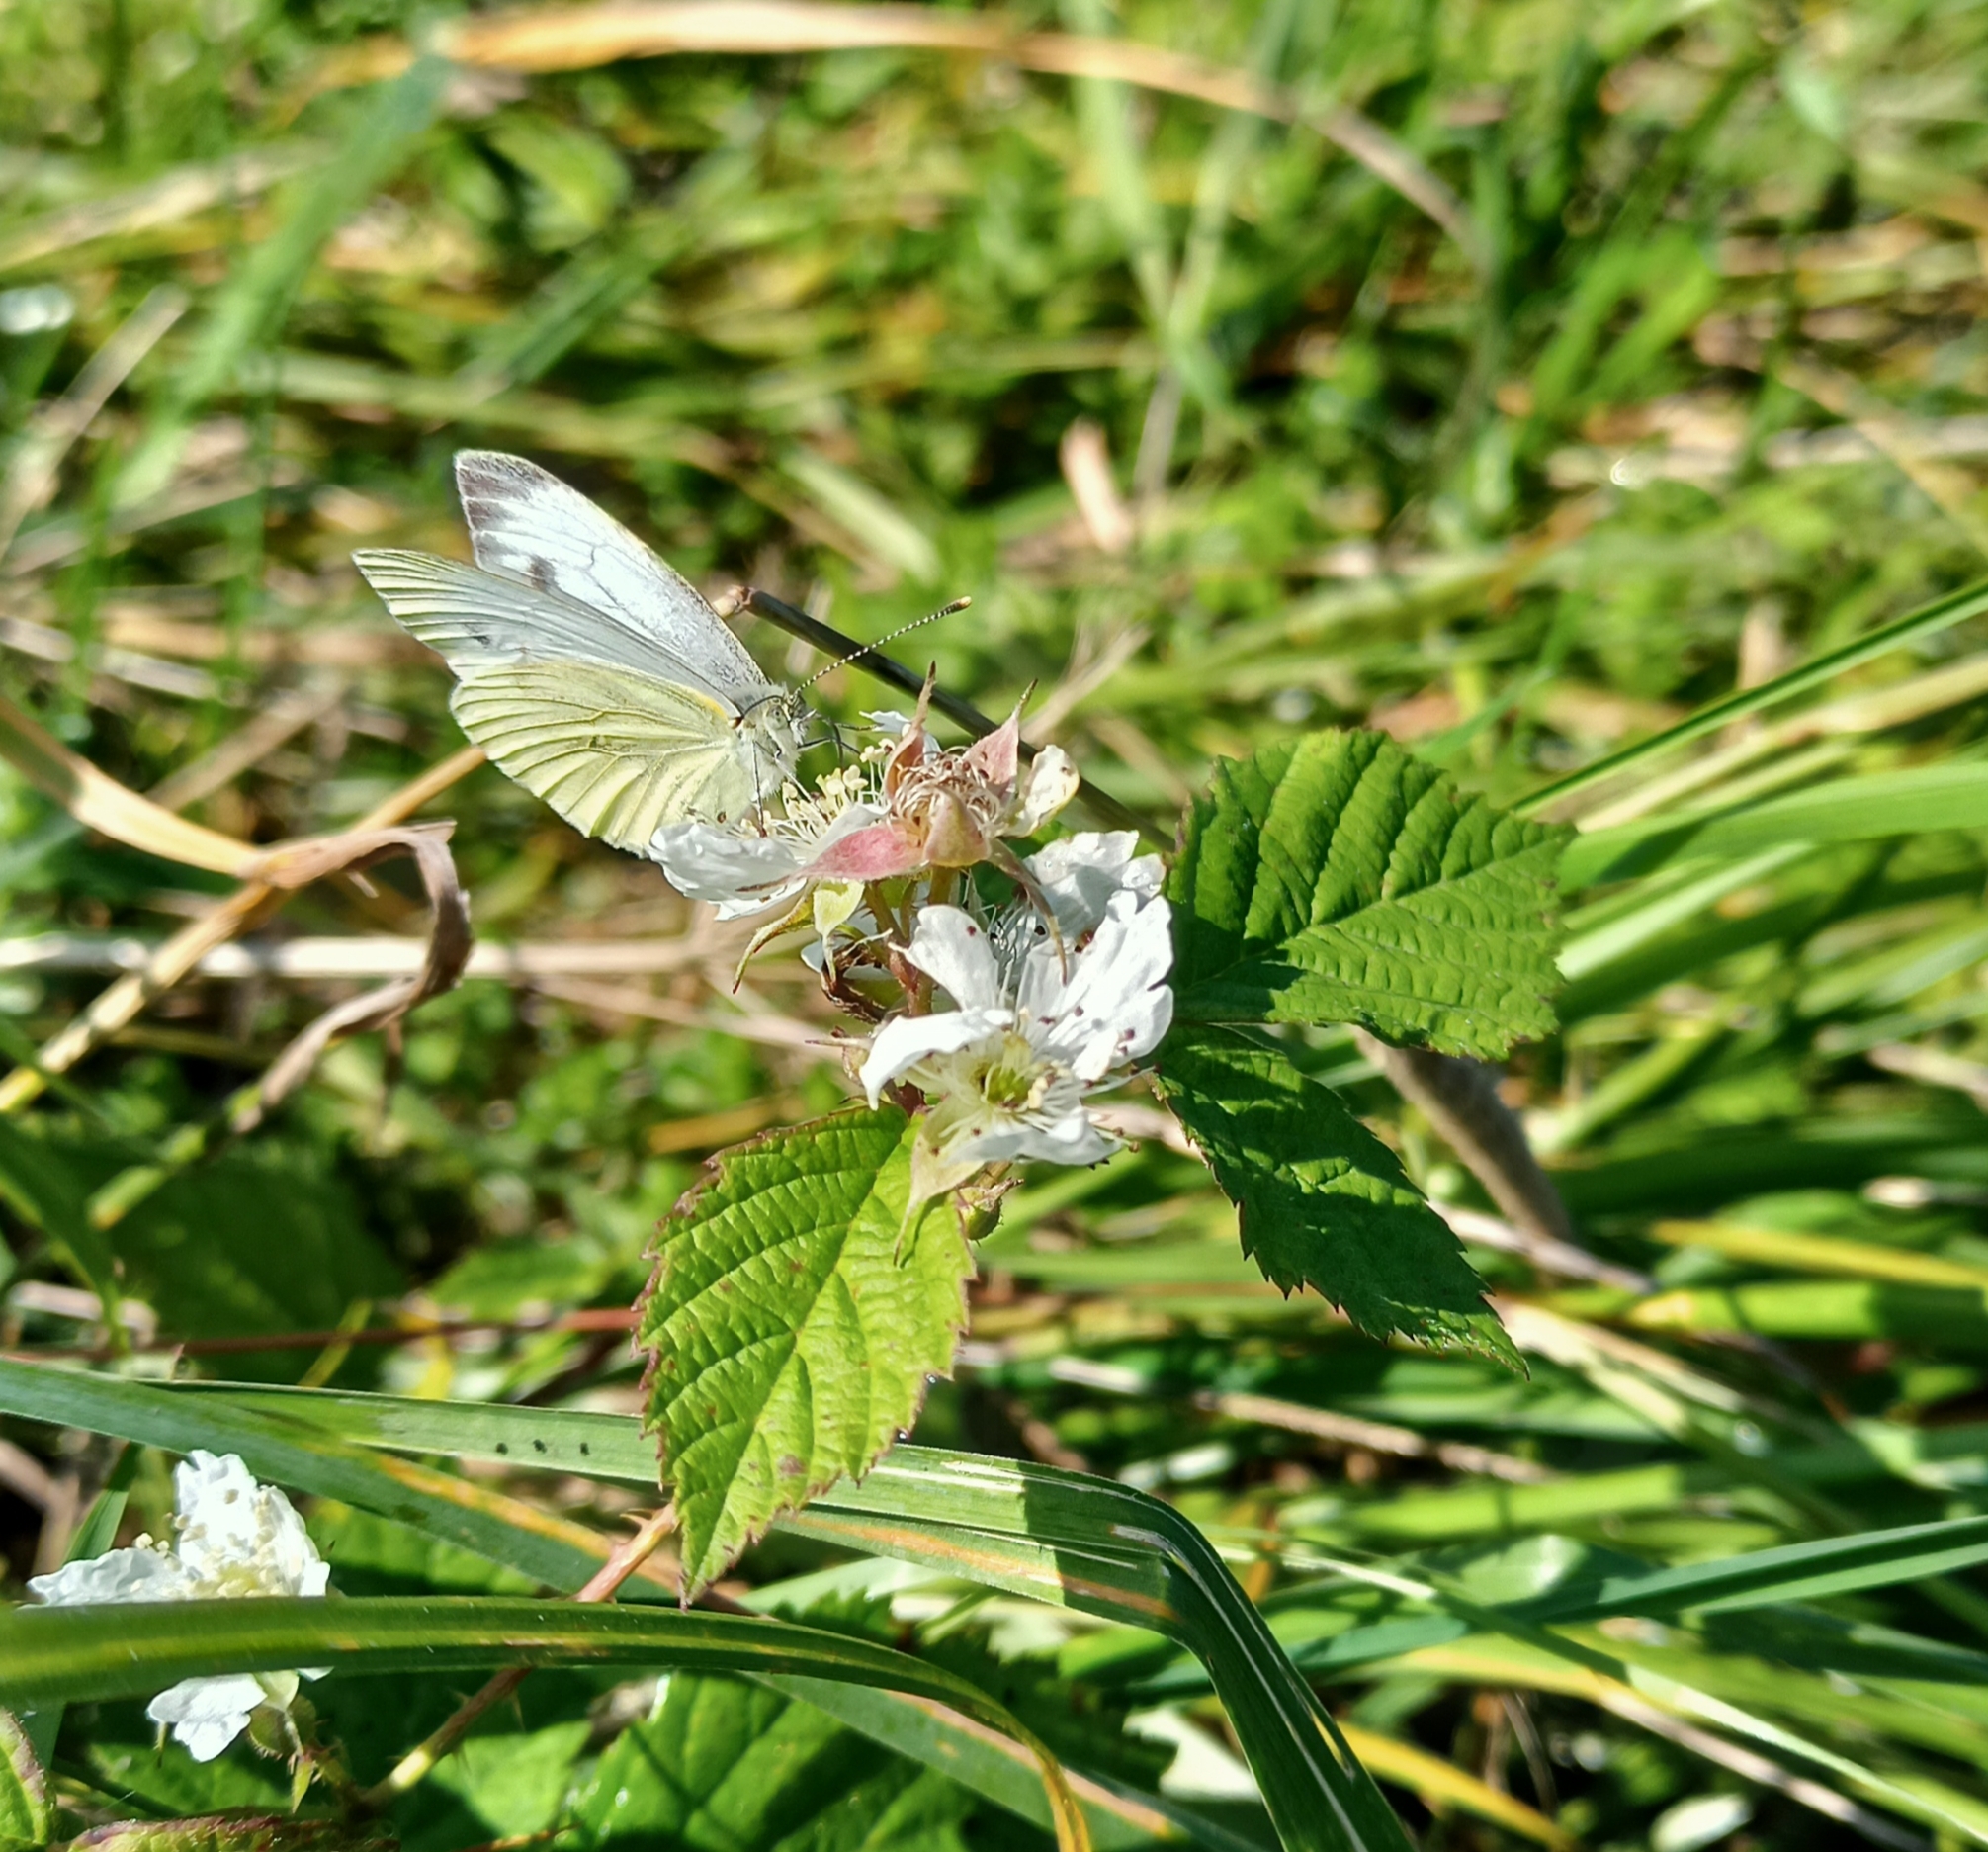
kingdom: Animalia
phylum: Arthropoda
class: Insecta
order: Lepidoptera
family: Pieridae
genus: Pieris
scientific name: Pieris napi
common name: Green-veined white
